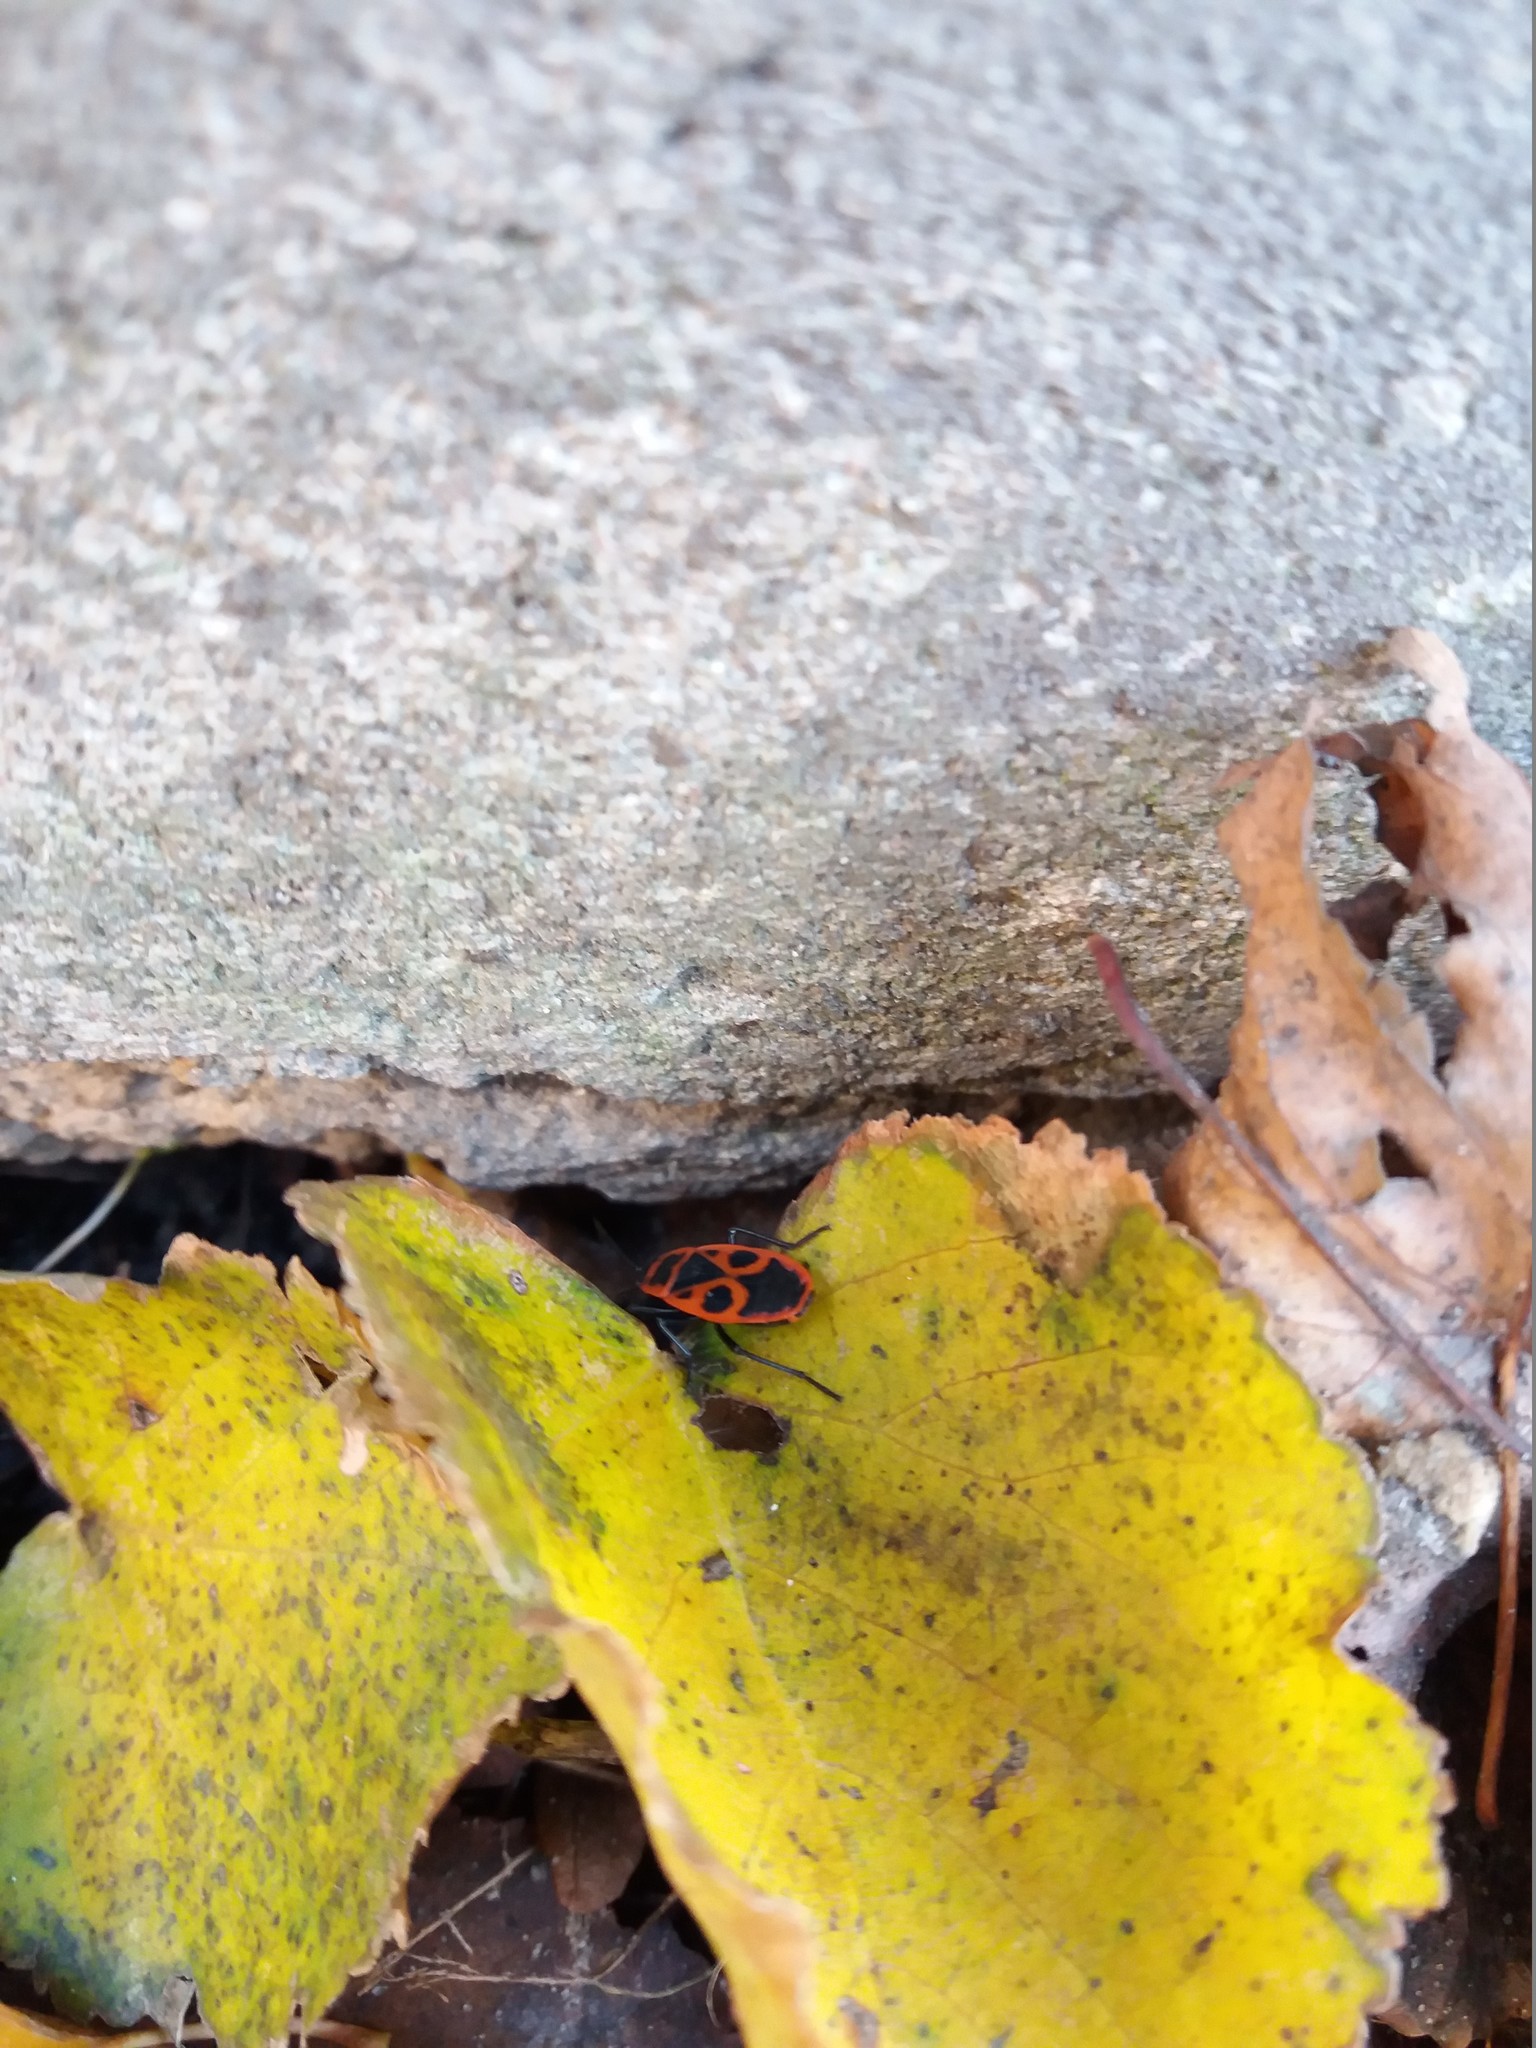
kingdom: Animalia
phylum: Arthropoda
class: Insecta
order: Hemiptera
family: Pyrrhocoridae
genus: Pyrrhocoris
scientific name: Pyrrhocoris apterus
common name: Firebug
